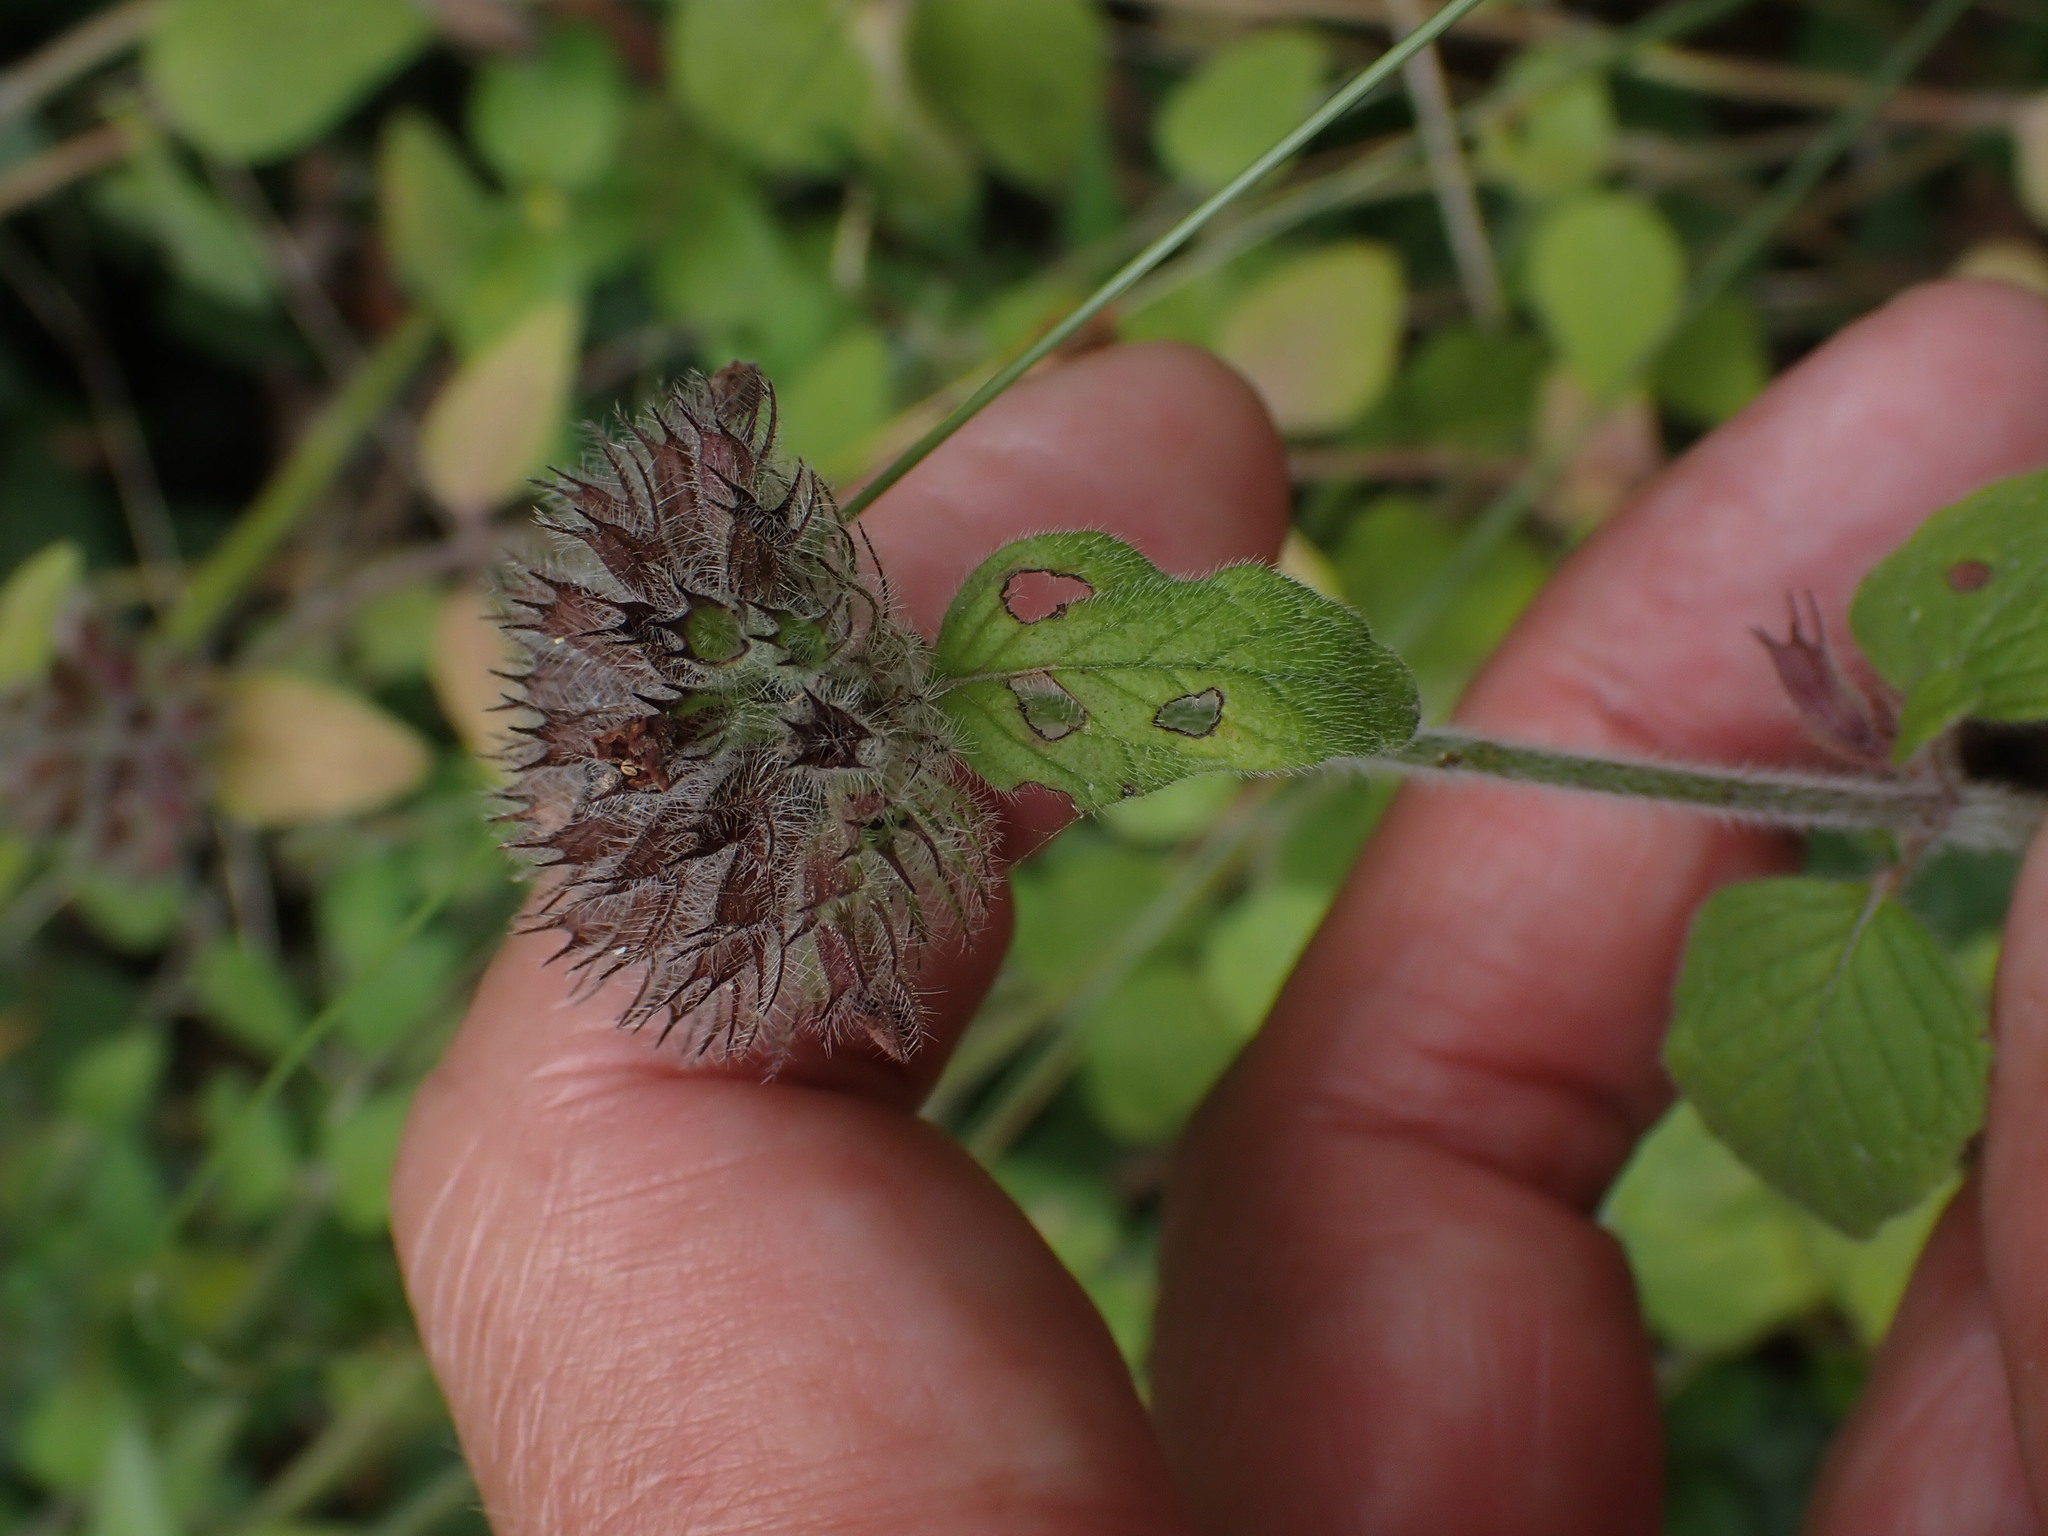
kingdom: Plantae
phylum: Tracheophyta
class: Magnoliopsida
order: Lamiales
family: Lamiaceae
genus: Clinopodium
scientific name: Clinopodium vulgare
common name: Wild basil
